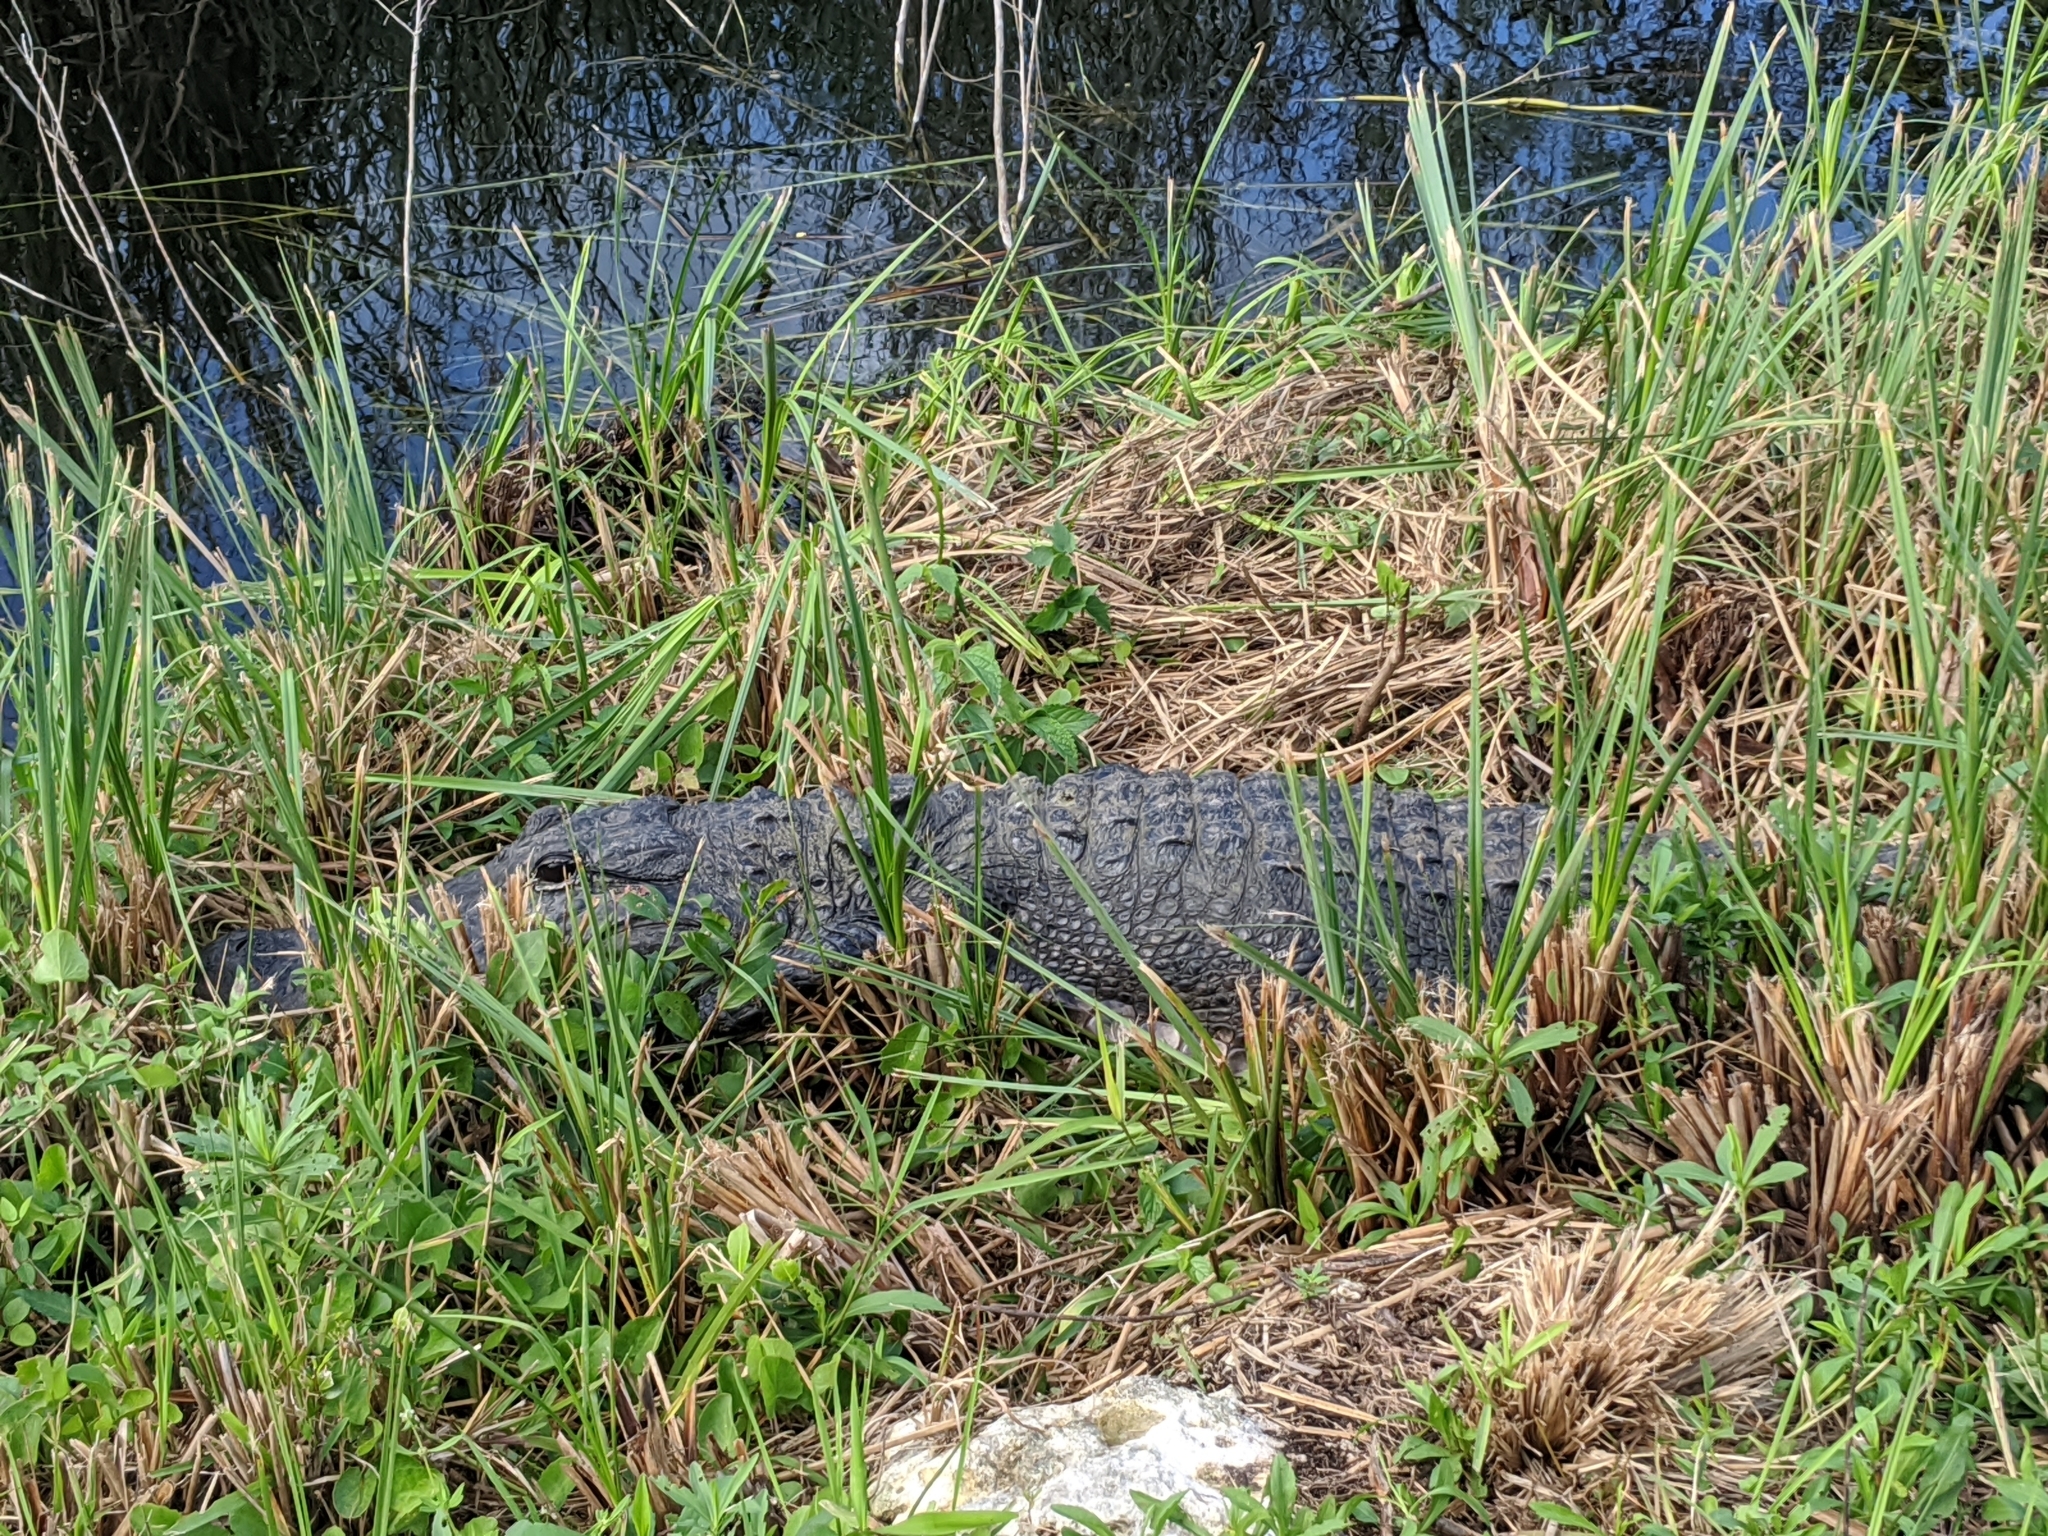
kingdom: Animalia
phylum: Chordata
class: Crocodylia
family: Alligatoridae
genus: Alligator
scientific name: Alligator mississippiensis
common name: American alligator
